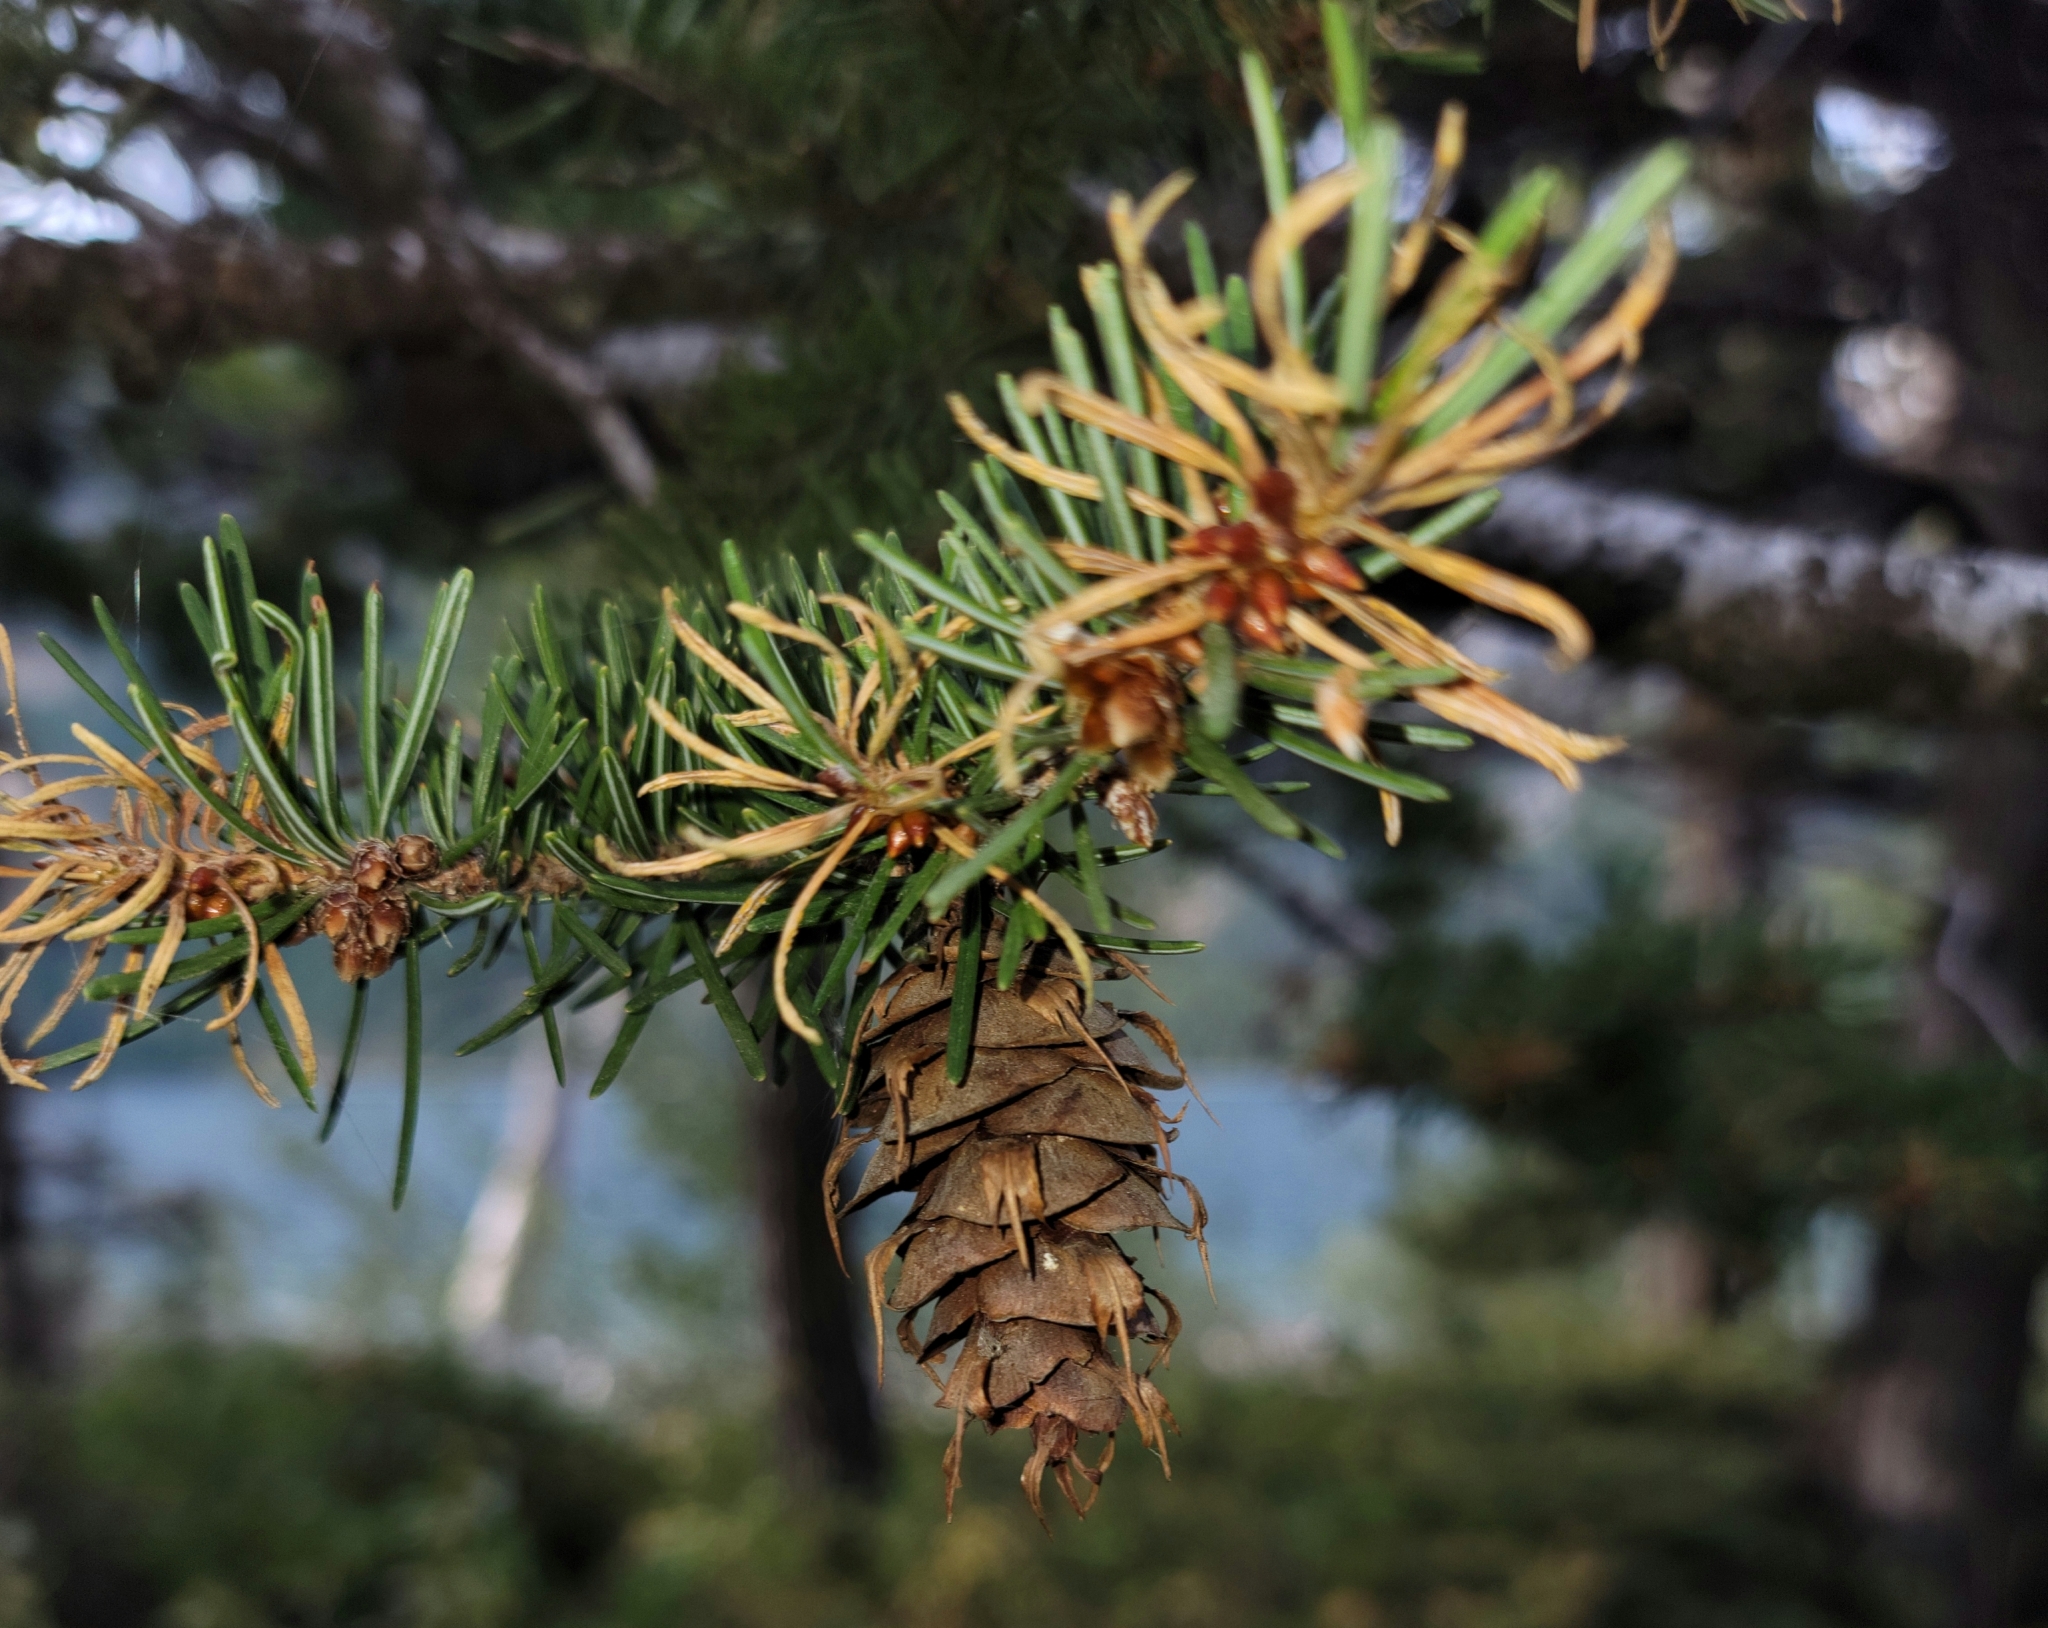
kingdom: Plantae
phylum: Tracheophyta
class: Pinopsida
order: Pinales
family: Pinaceae
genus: Pseudotsuga
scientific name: Pseudotsuga menziesii
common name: Douglas fir
